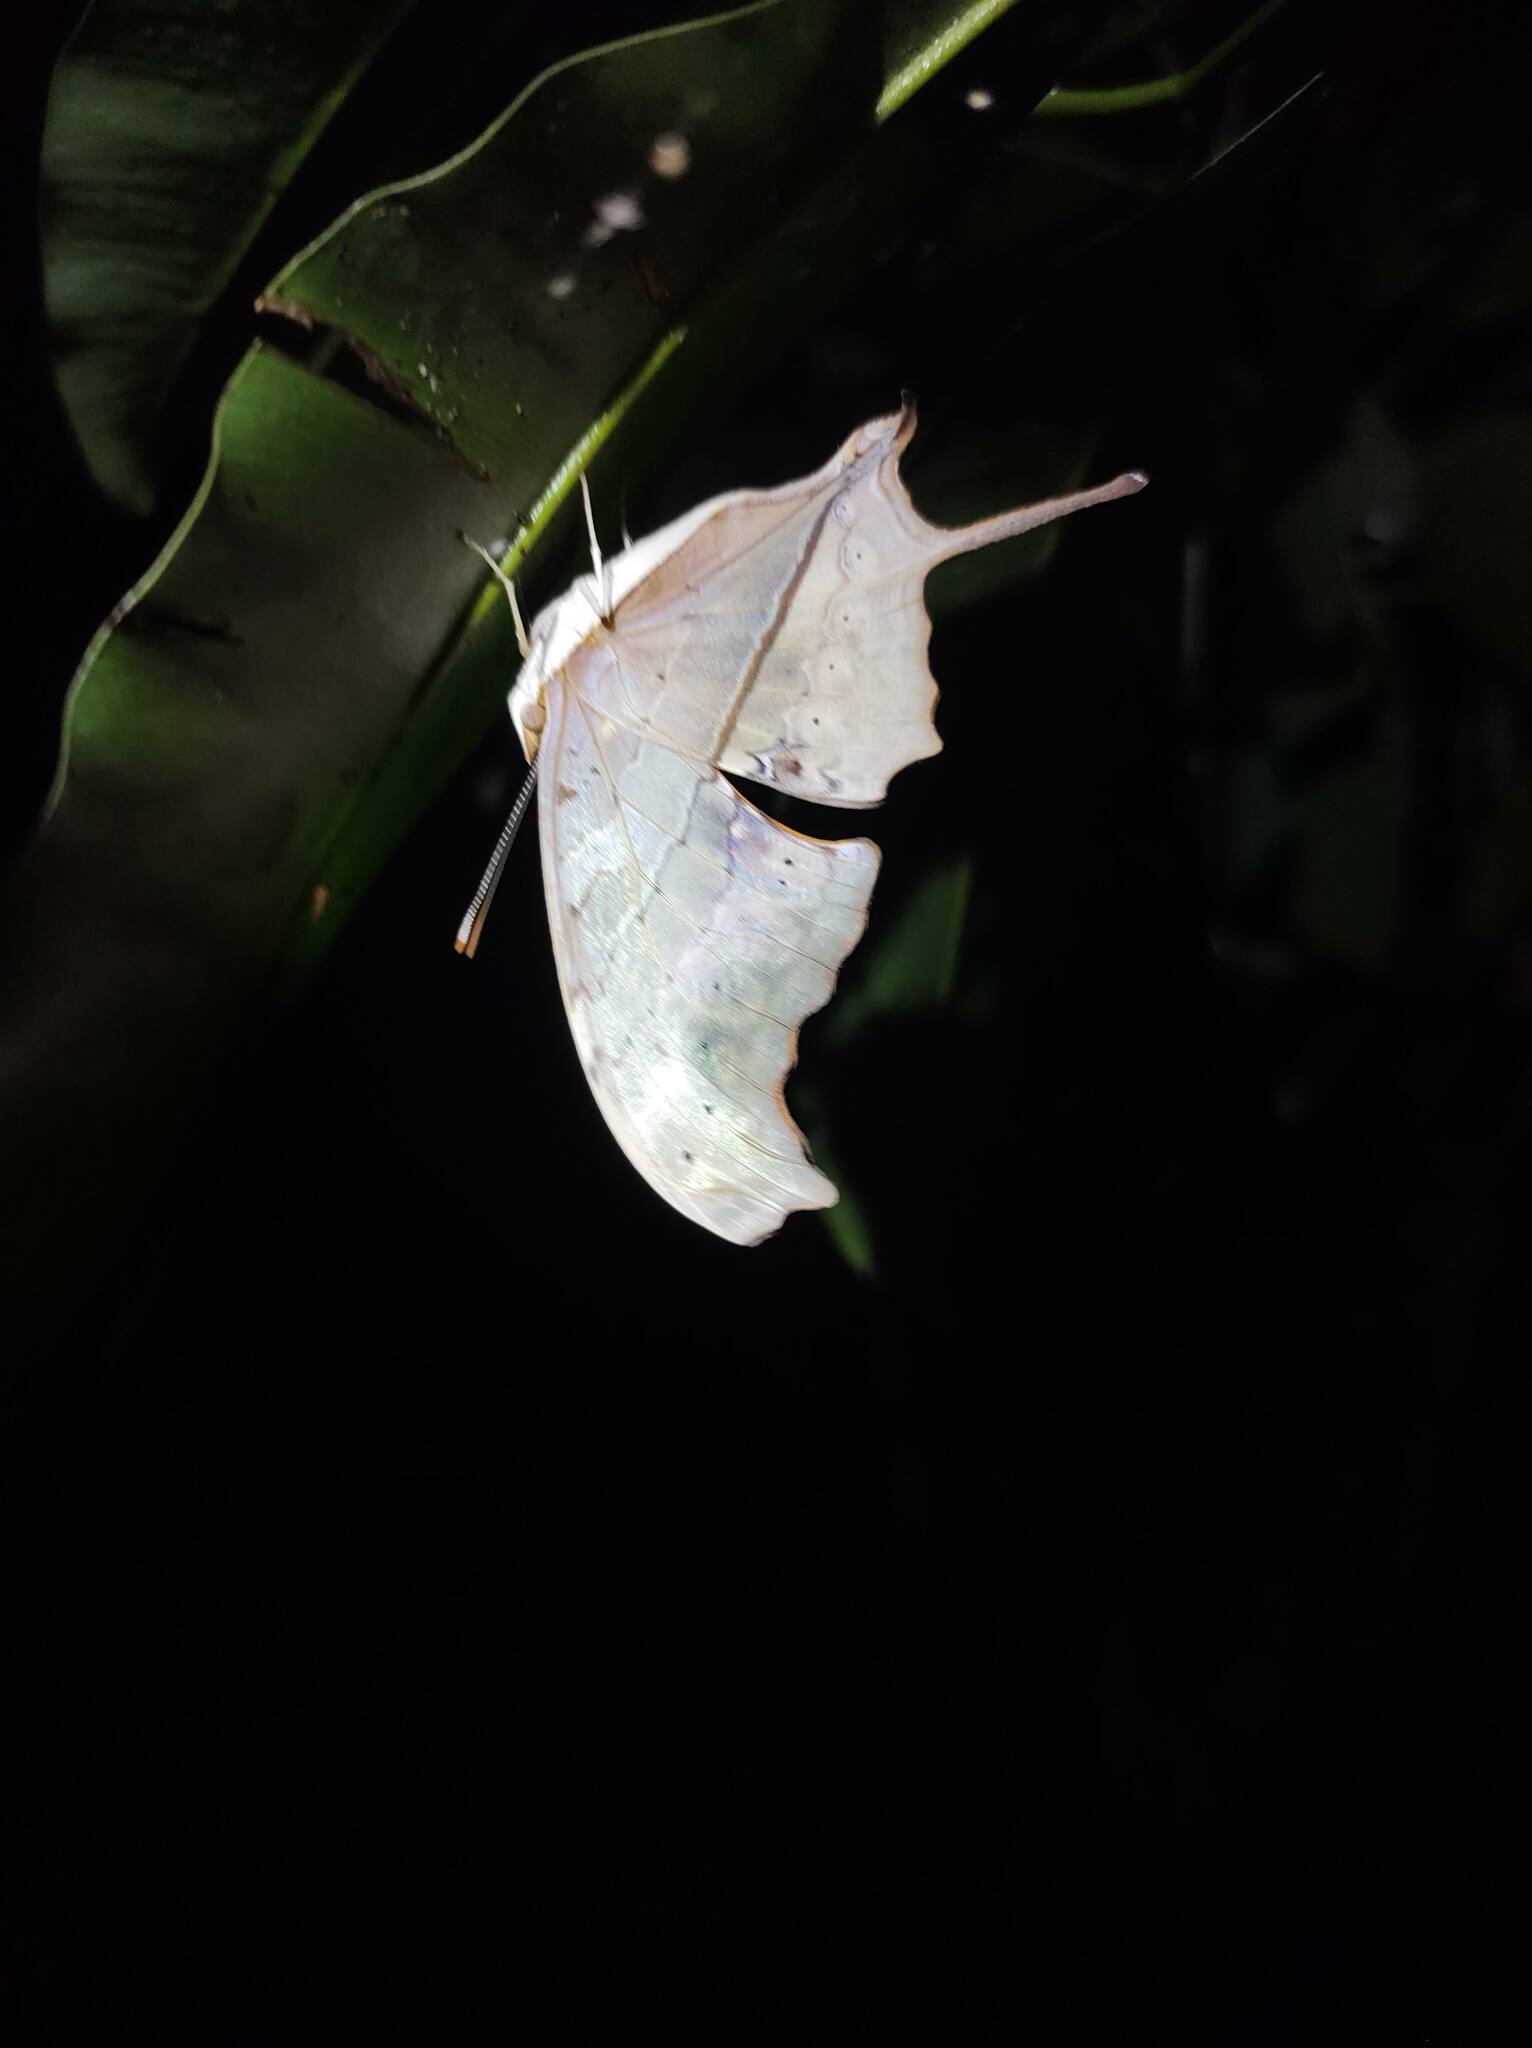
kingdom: Animalia
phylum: Arthropoda
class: Insecta
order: Lepidoptera
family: Nymphalidae
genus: Marpesia
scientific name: Marpesia petreus
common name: Red dagger wing
